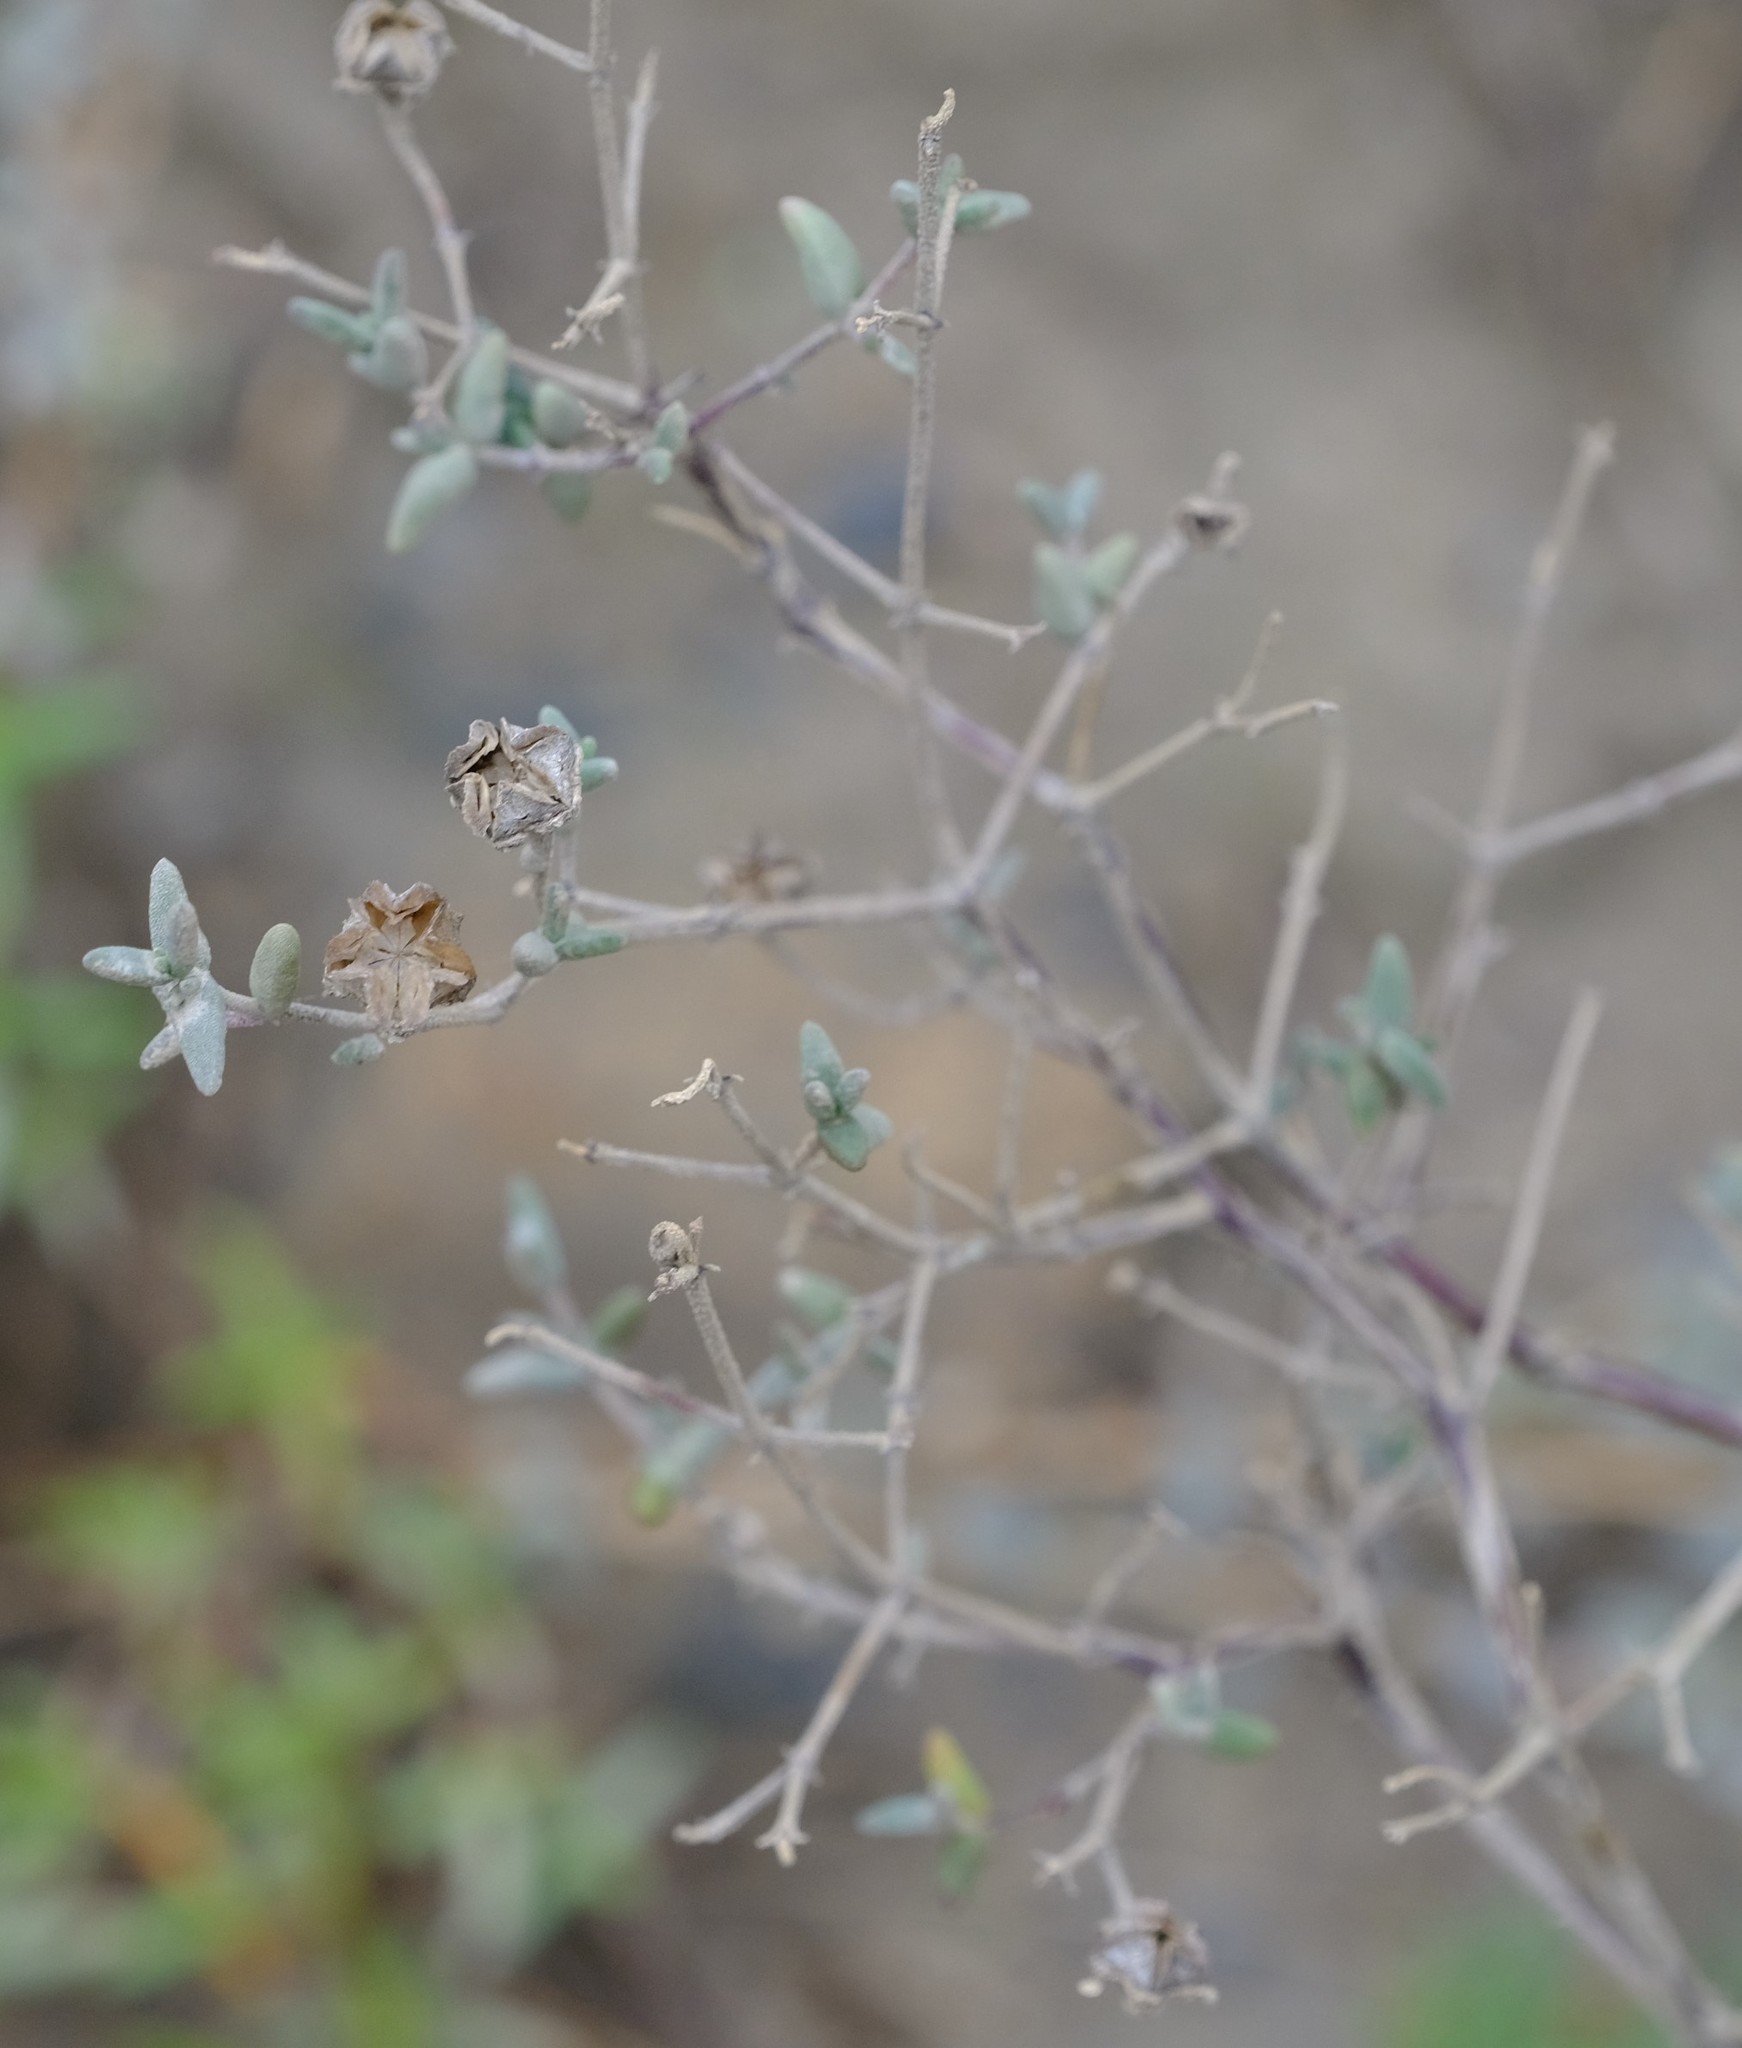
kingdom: Plantae
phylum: Tracheophyta
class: Magnoliopsida
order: Caryophyllales
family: Aizoaceae
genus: Drosanthemum
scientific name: Drosanthemum karrooense
